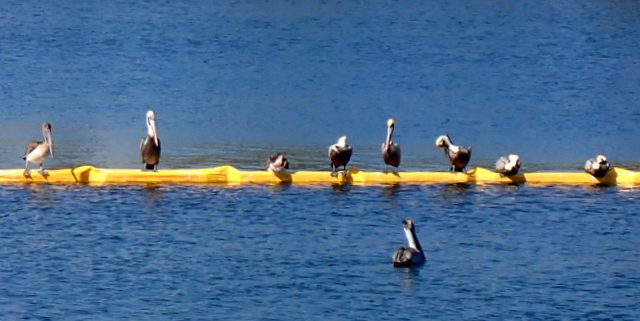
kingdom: Animalia
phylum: Chordata
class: Aves
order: Pelecaniformes
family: Pelecanidae
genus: Pelecanus
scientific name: Pelecanus occidentalis
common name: Brown pelican
